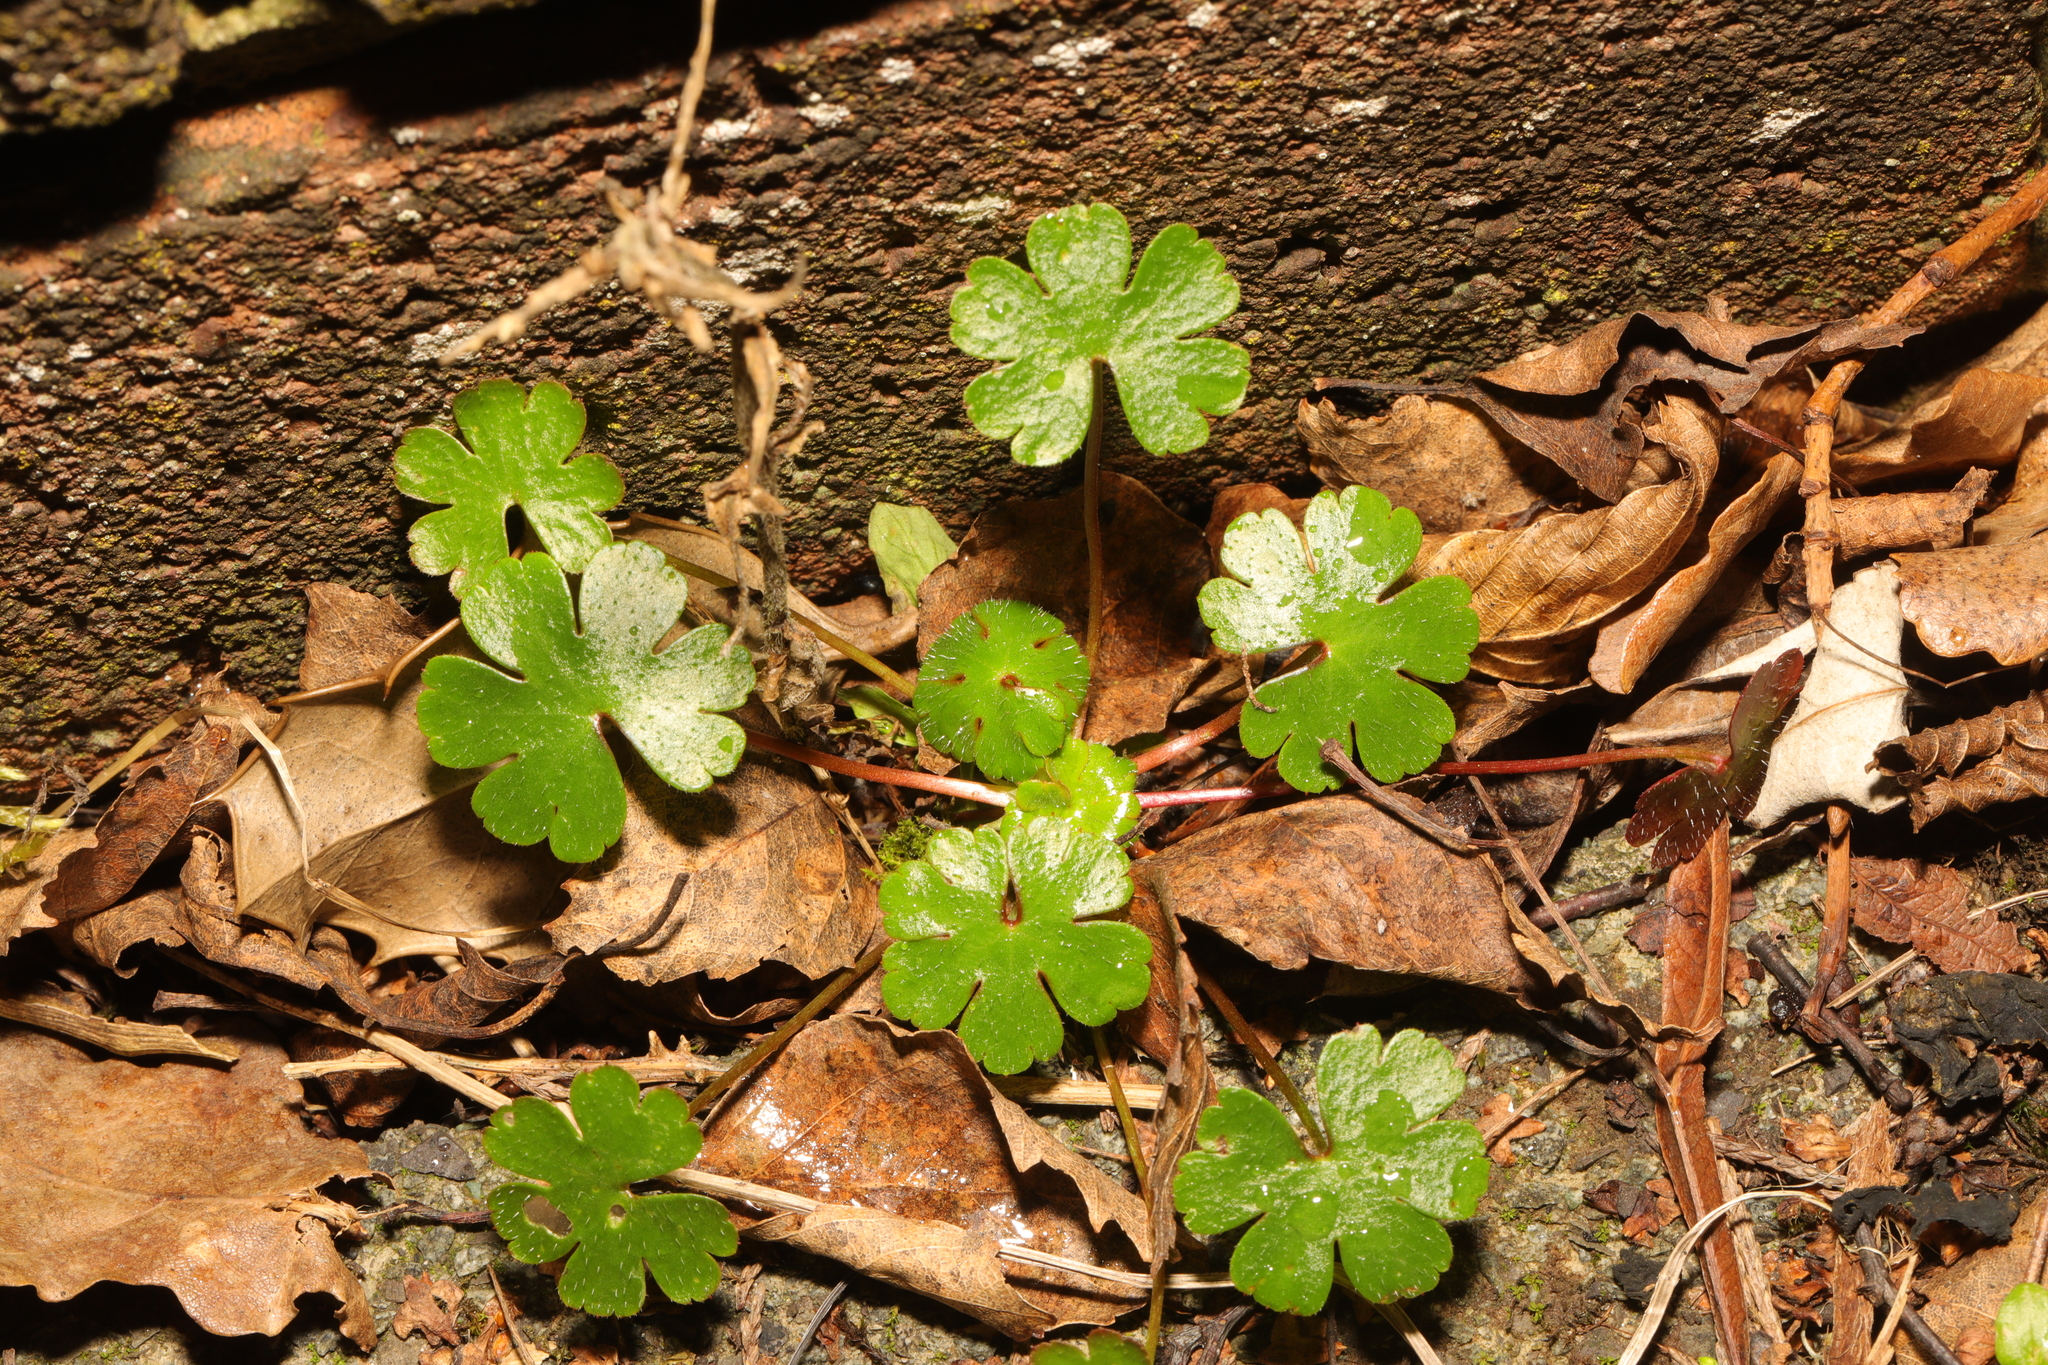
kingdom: Plantae
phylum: Tracheophyta
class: Magnoliopsida
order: Geraniales
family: Geraniaceae
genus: Geranium
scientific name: Geranium lucidum
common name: Shining crane's-bill
